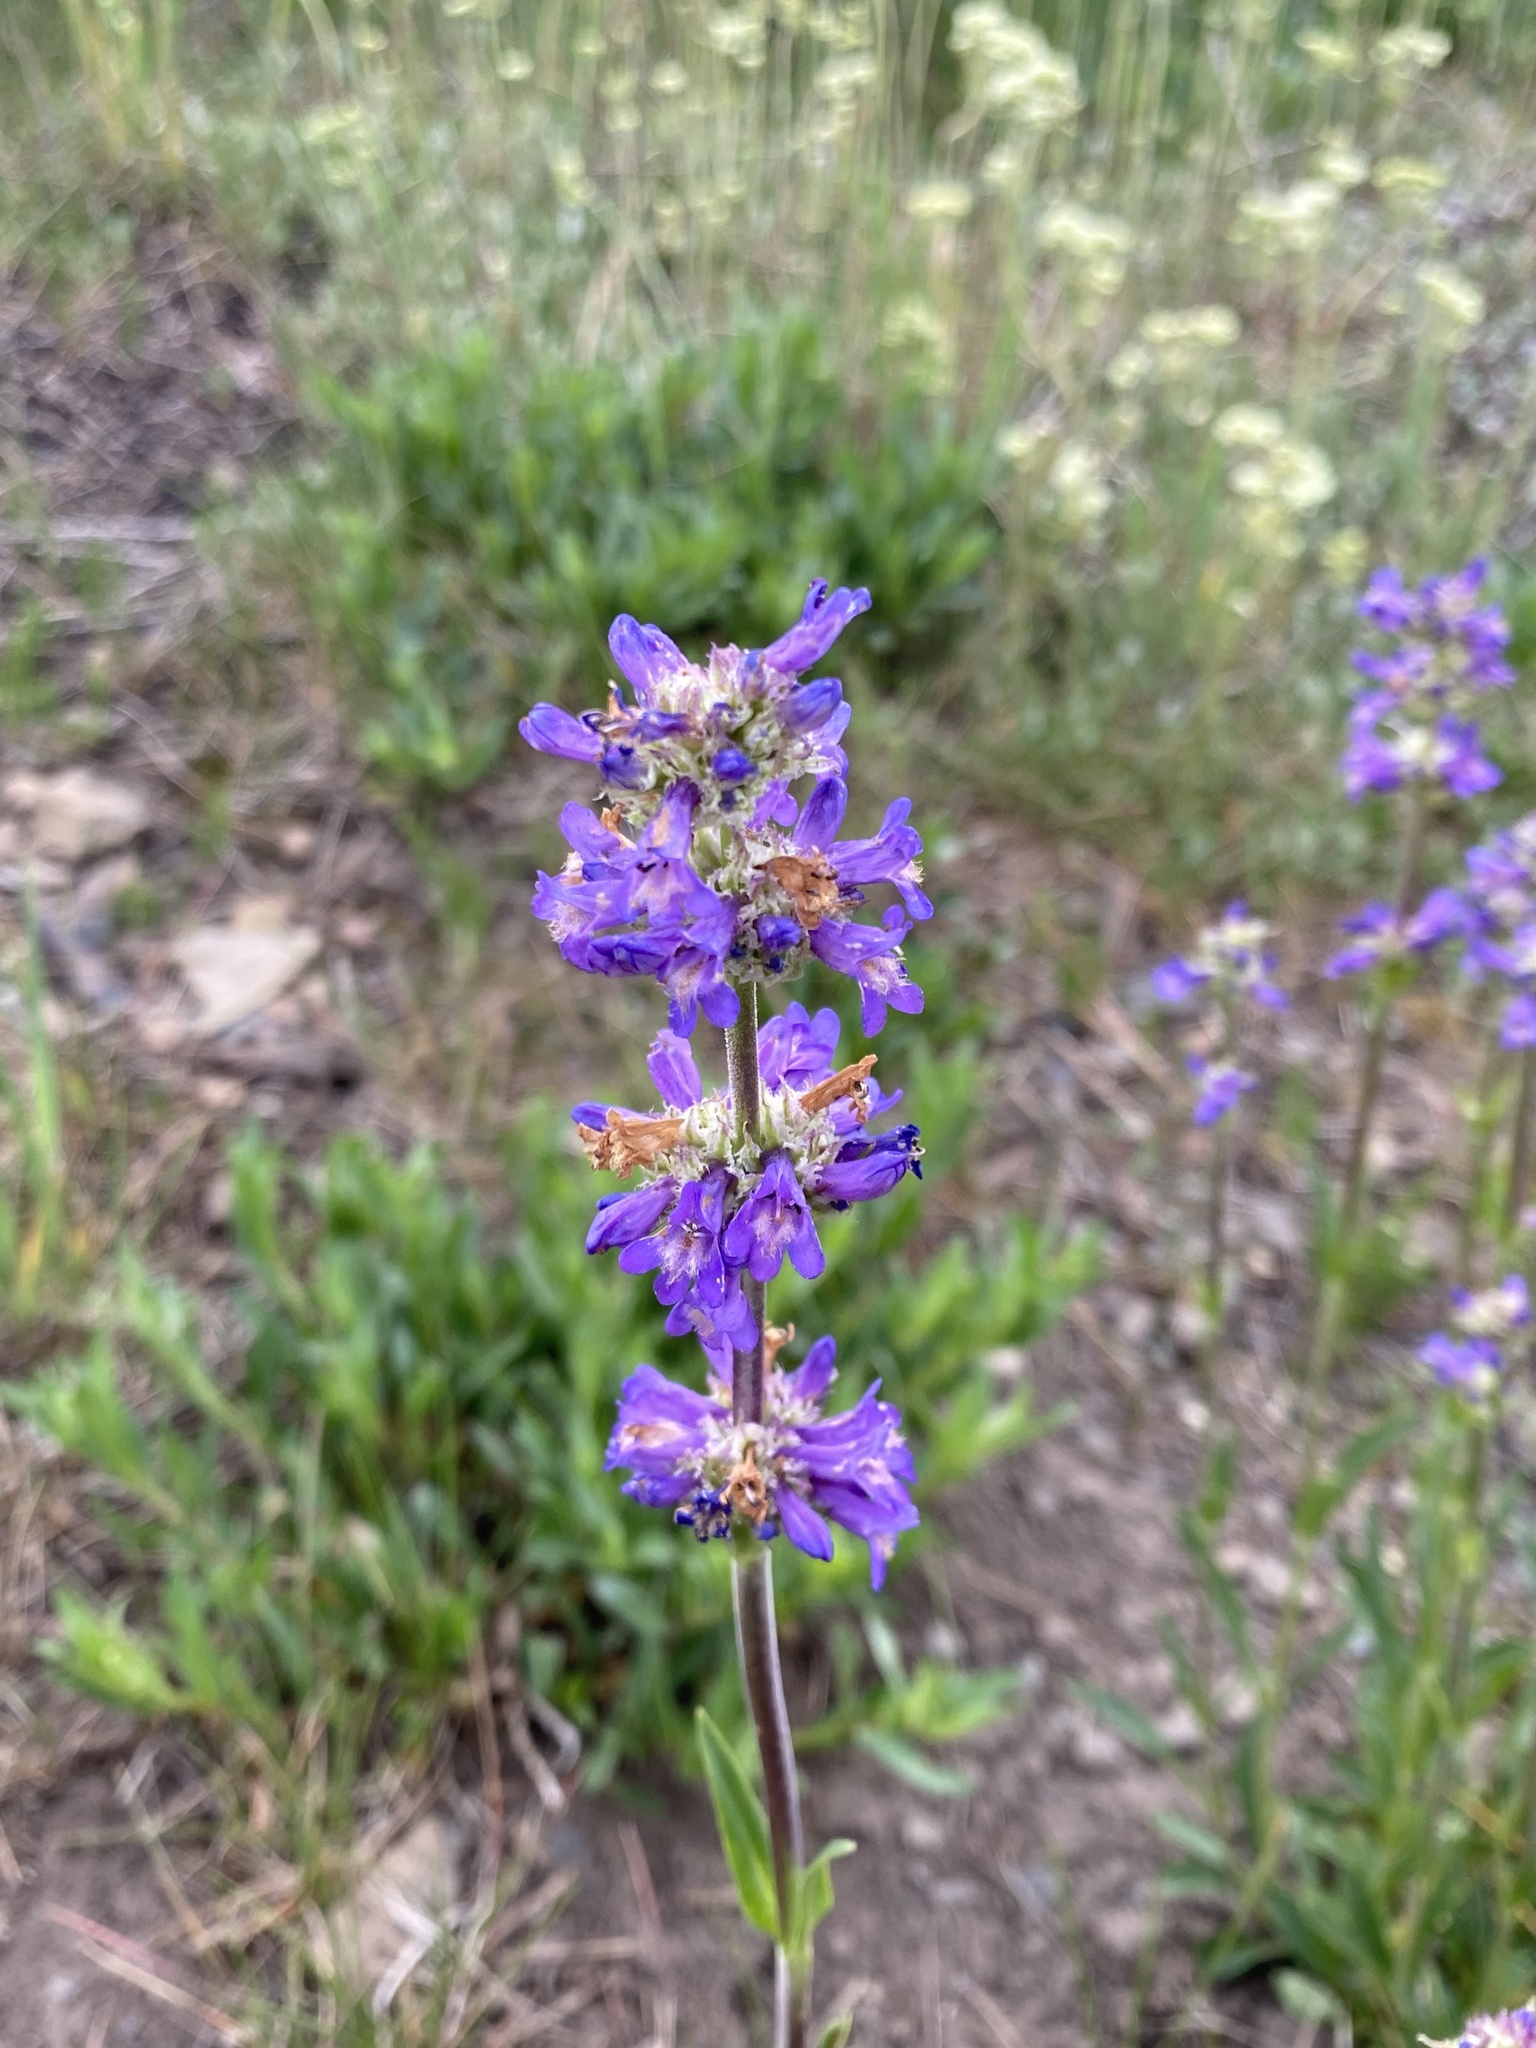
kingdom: Plantae
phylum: Tracheophyta
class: Magnoliopsida
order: Lamiales
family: Plantaginaceae
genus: Penstemon
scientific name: Penstemon rydbergii
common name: Rydberg's beardtongue
